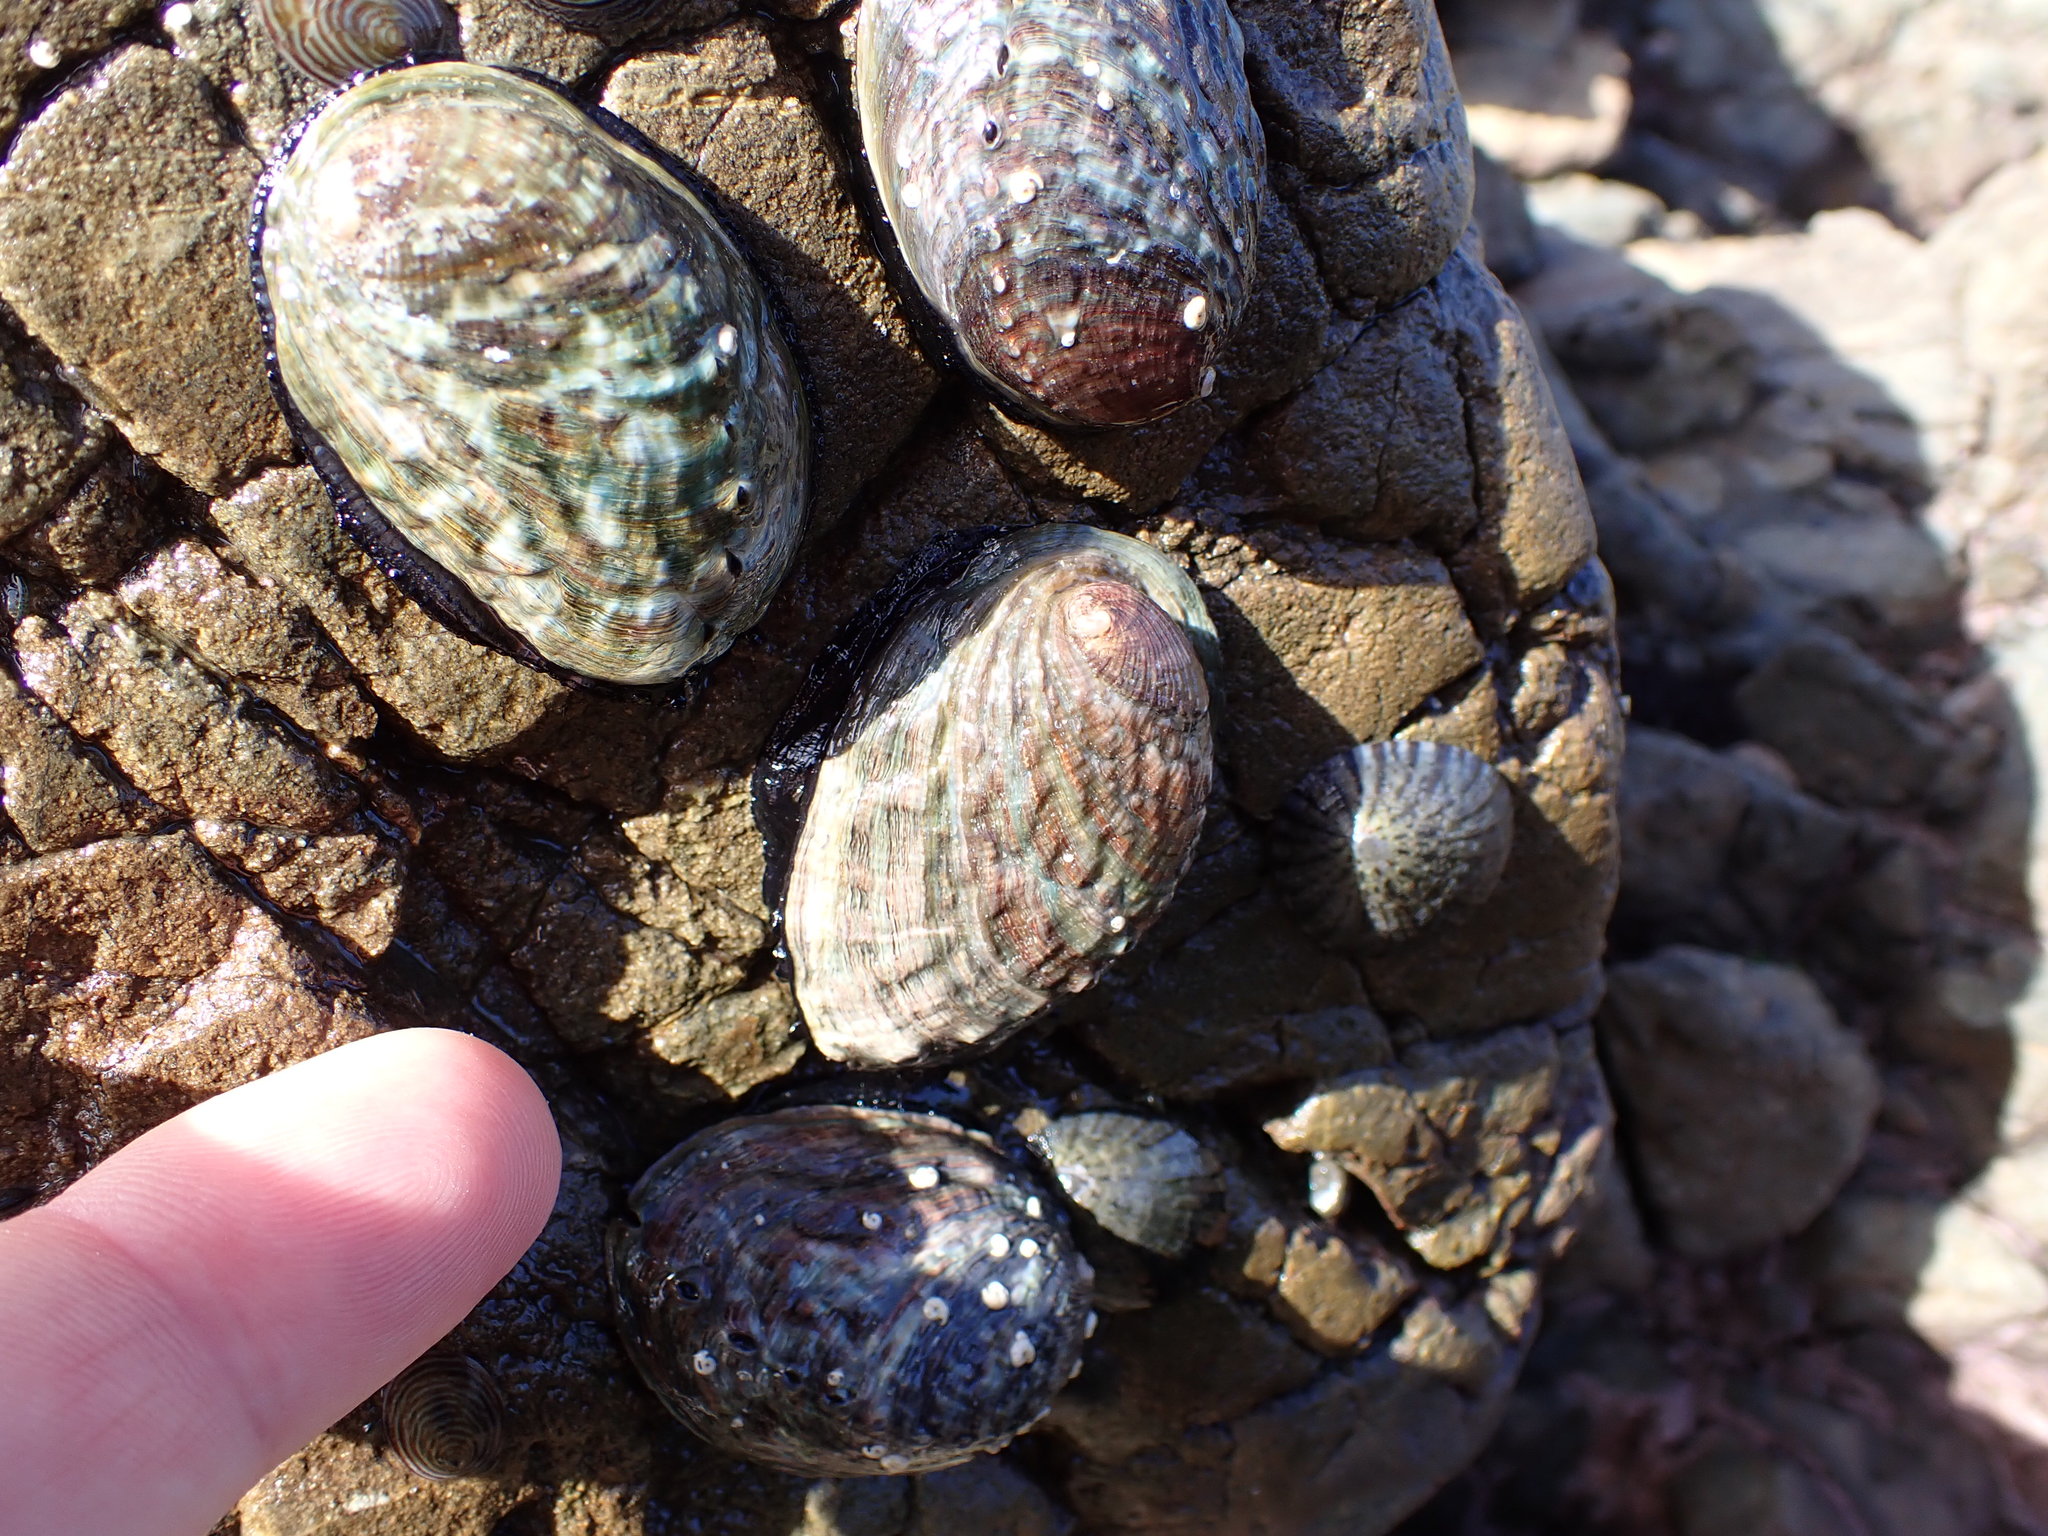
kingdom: Animalia
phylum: Mollusca
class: Gastropoda
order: Lepetellida
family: Haliotidae
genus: Haliotis
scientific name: Haliotis iris
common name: Abalone
